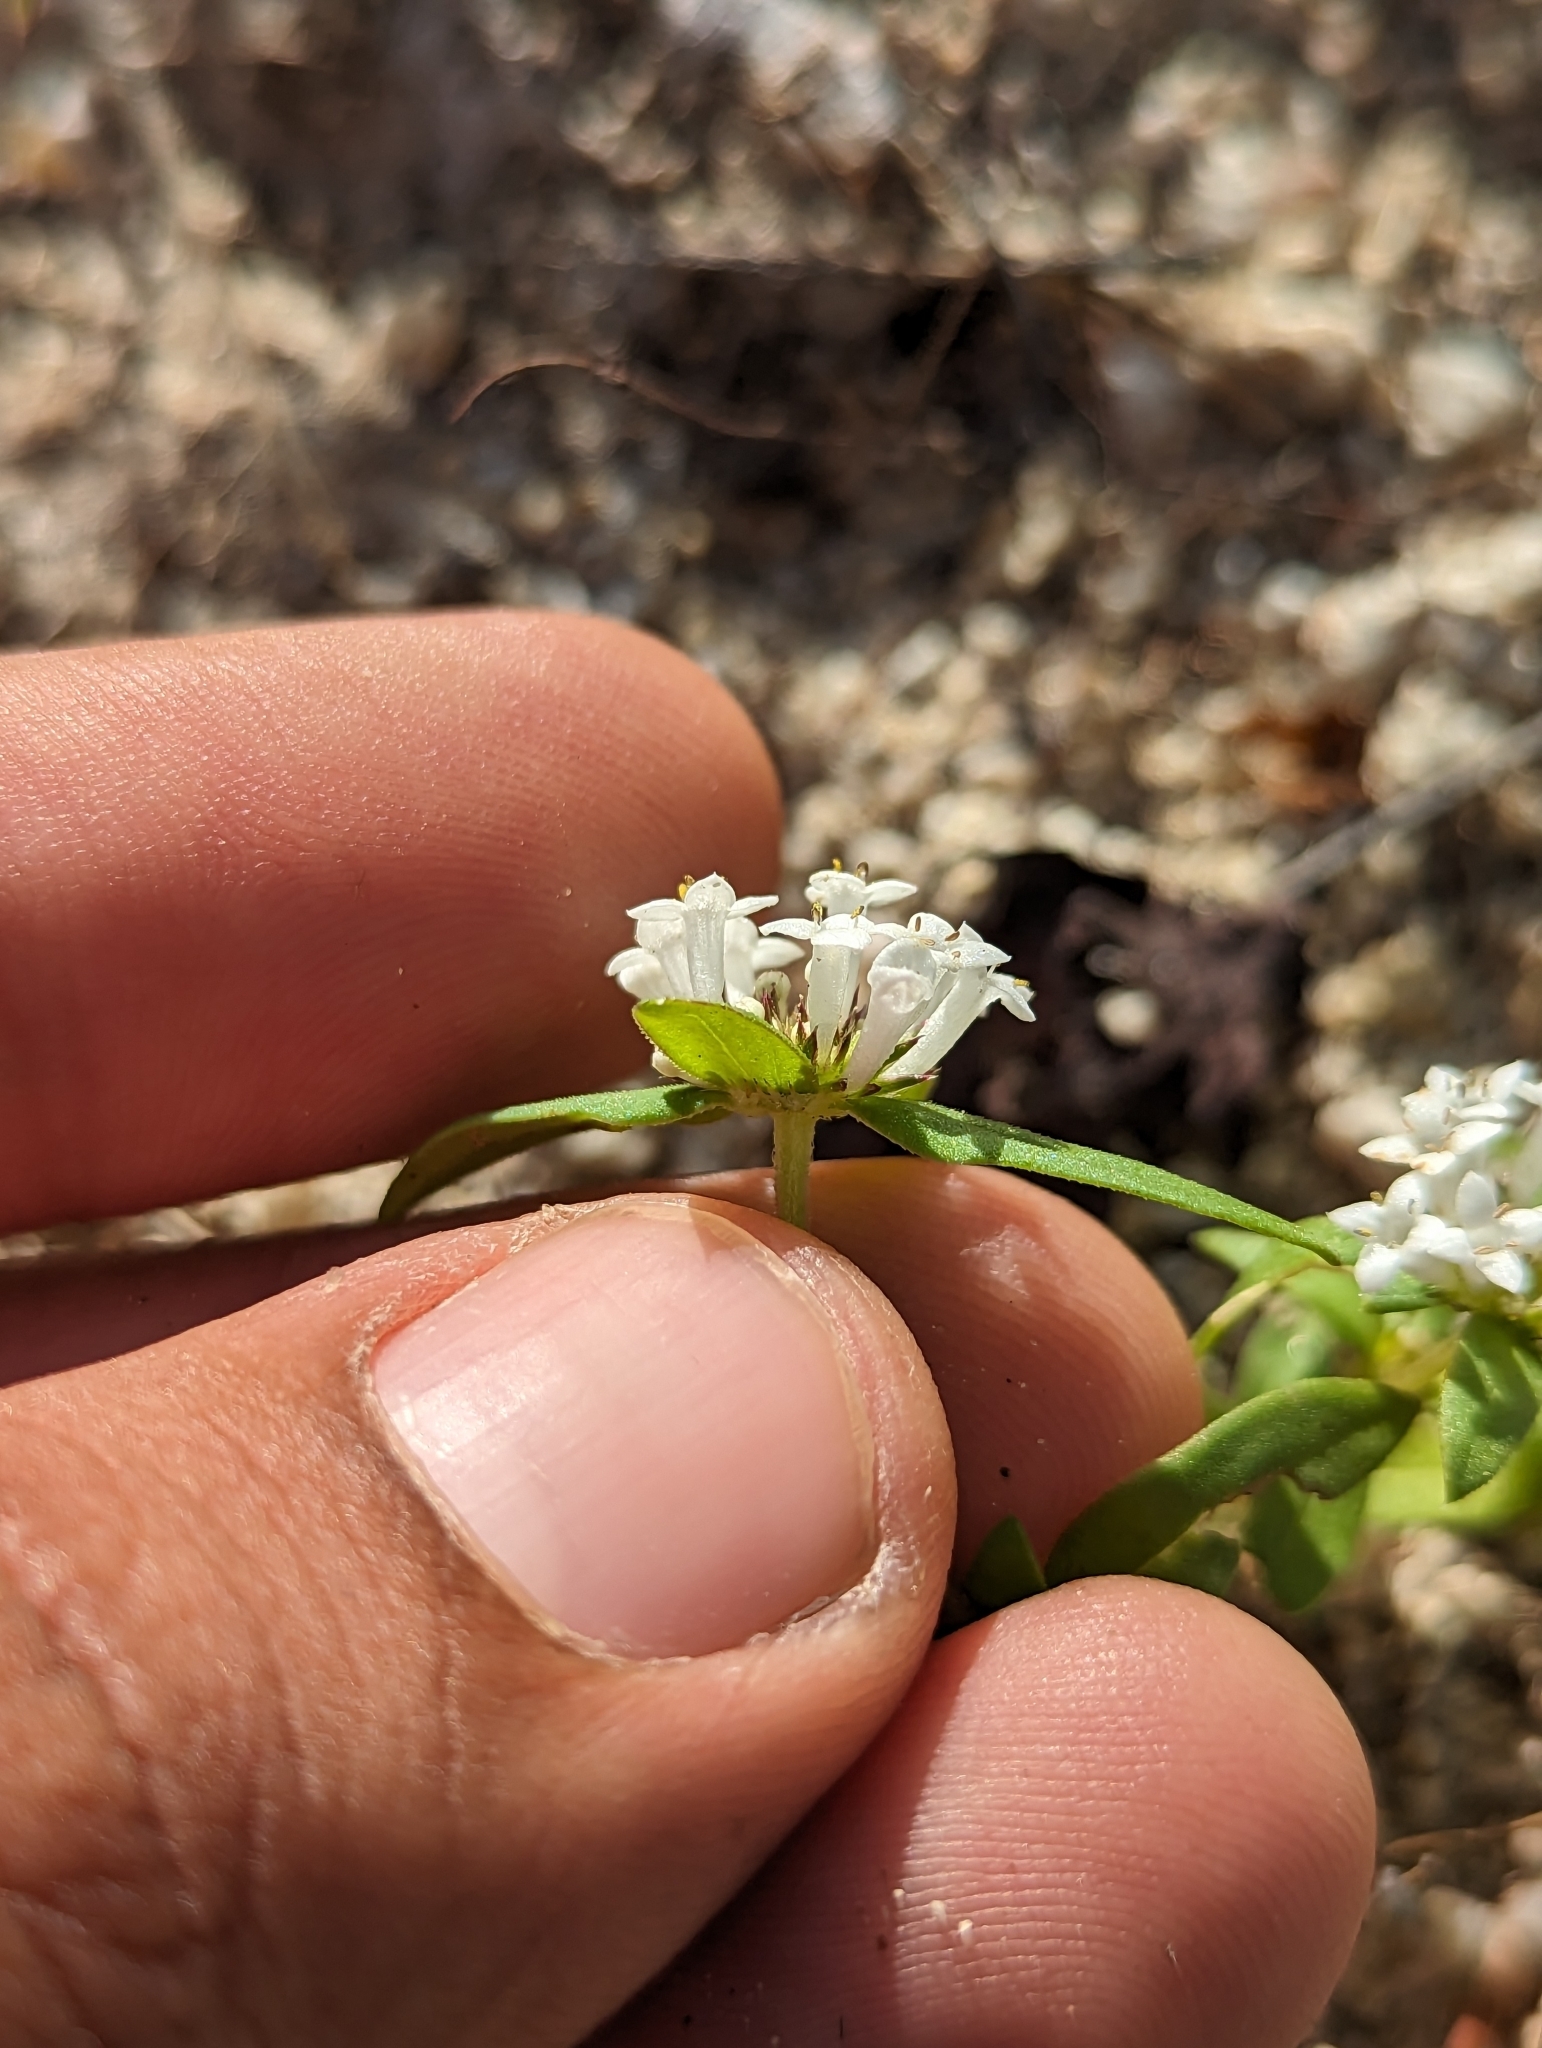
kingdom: Plantae
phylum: Tracheophyta
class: Magnoliopsida
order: Gentianales
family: Rubiaceae
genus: Mitracarpus
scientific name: Mitracarpus hirtus
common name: Tropical girdlepod
